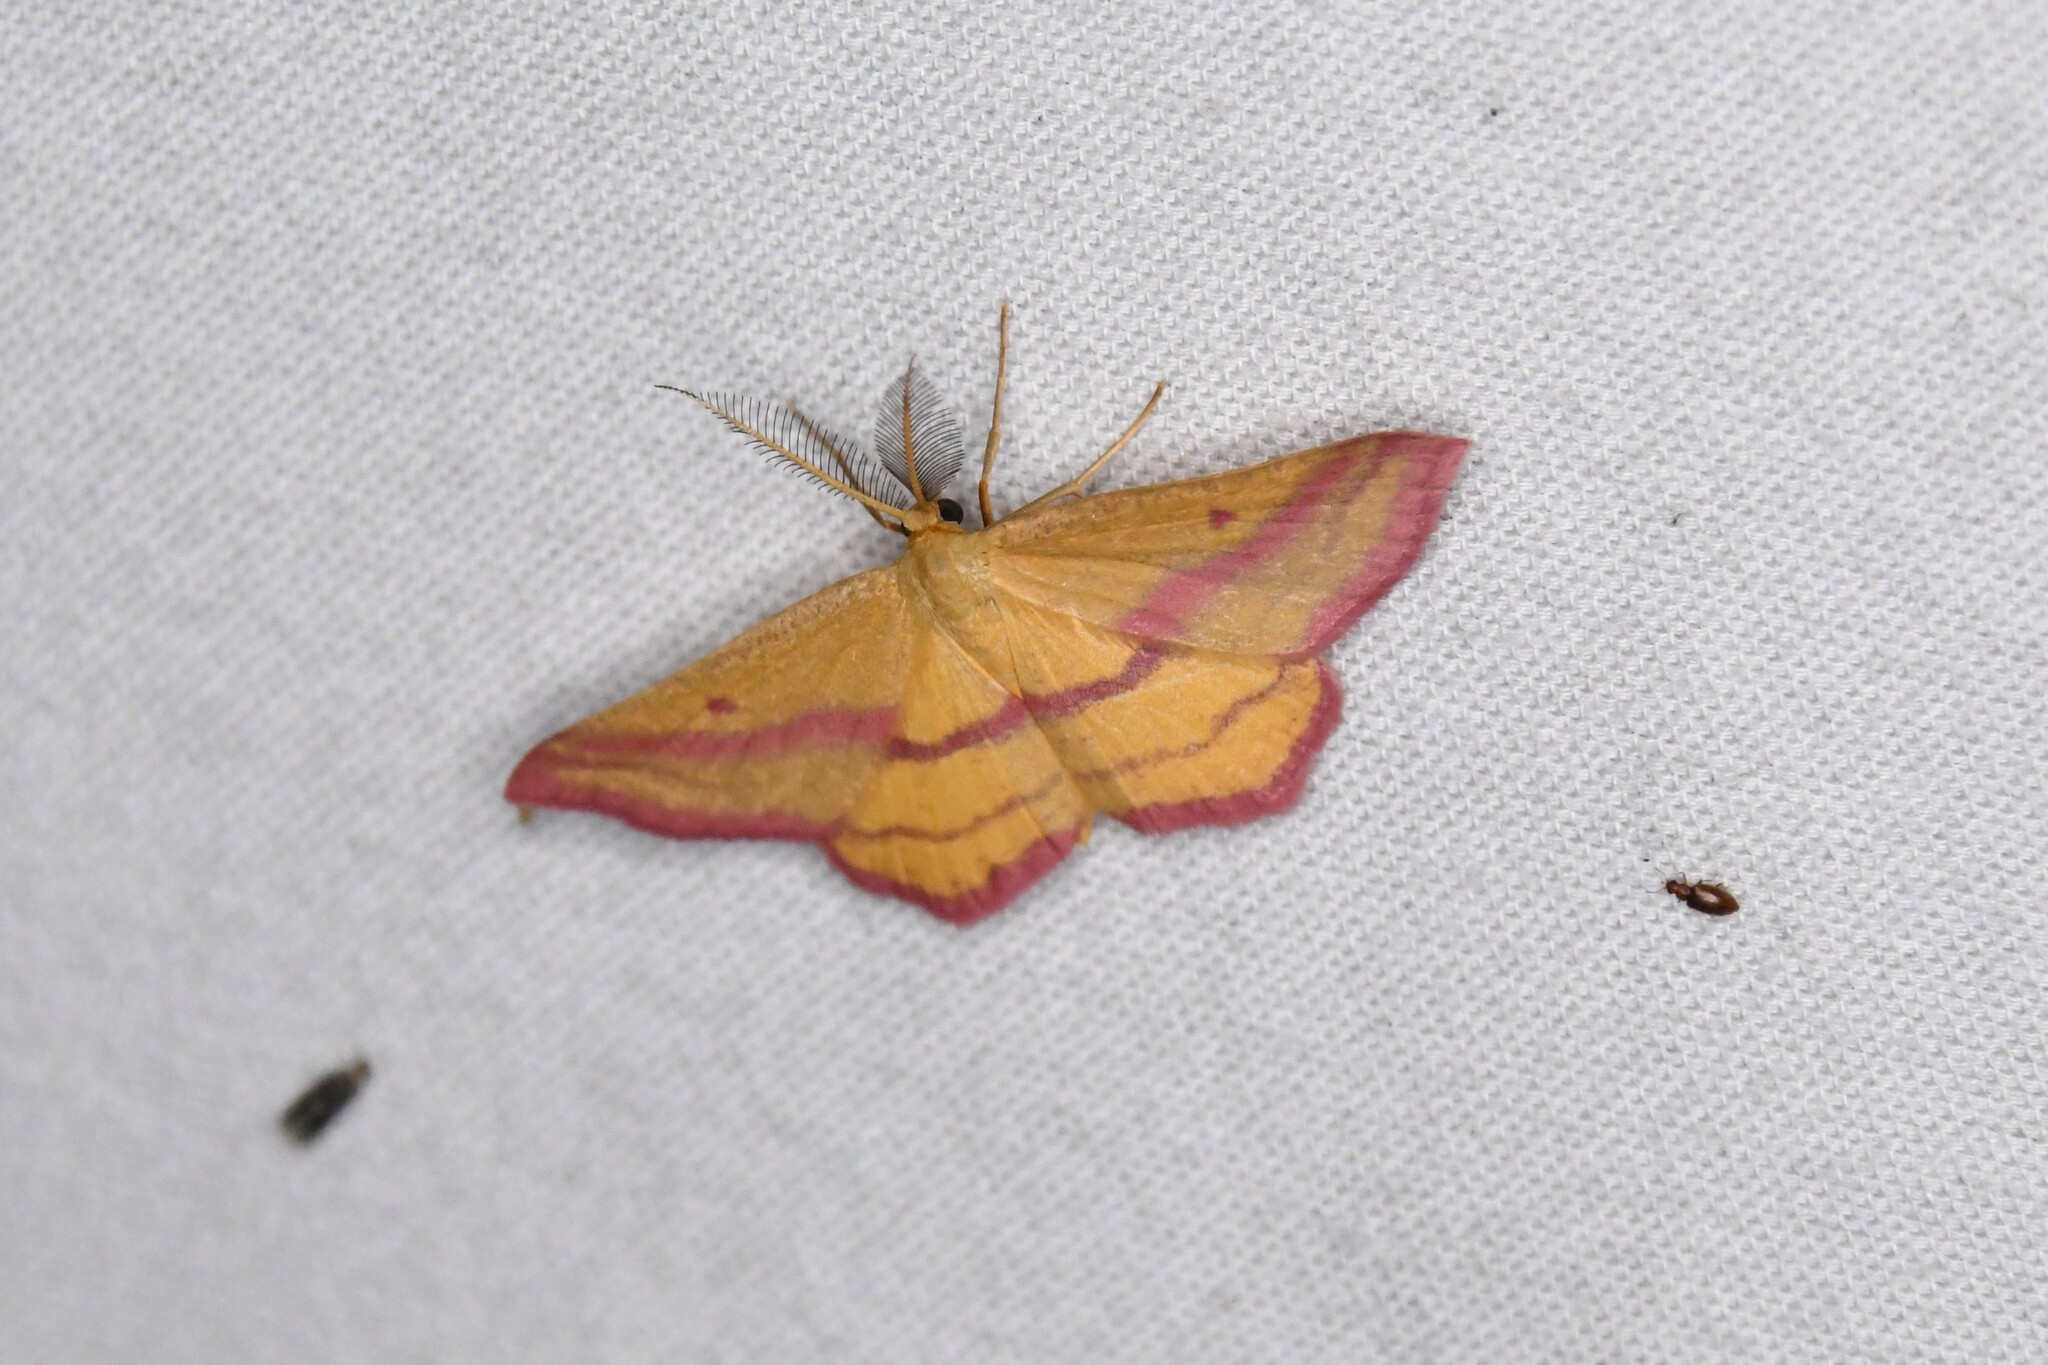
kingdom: Animalia
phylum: Arthropoda
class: Insecta
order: Lepidoptera
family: Geometridae
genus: Haematopis
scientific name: Haematopis grataria
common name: Chickweed geometer
